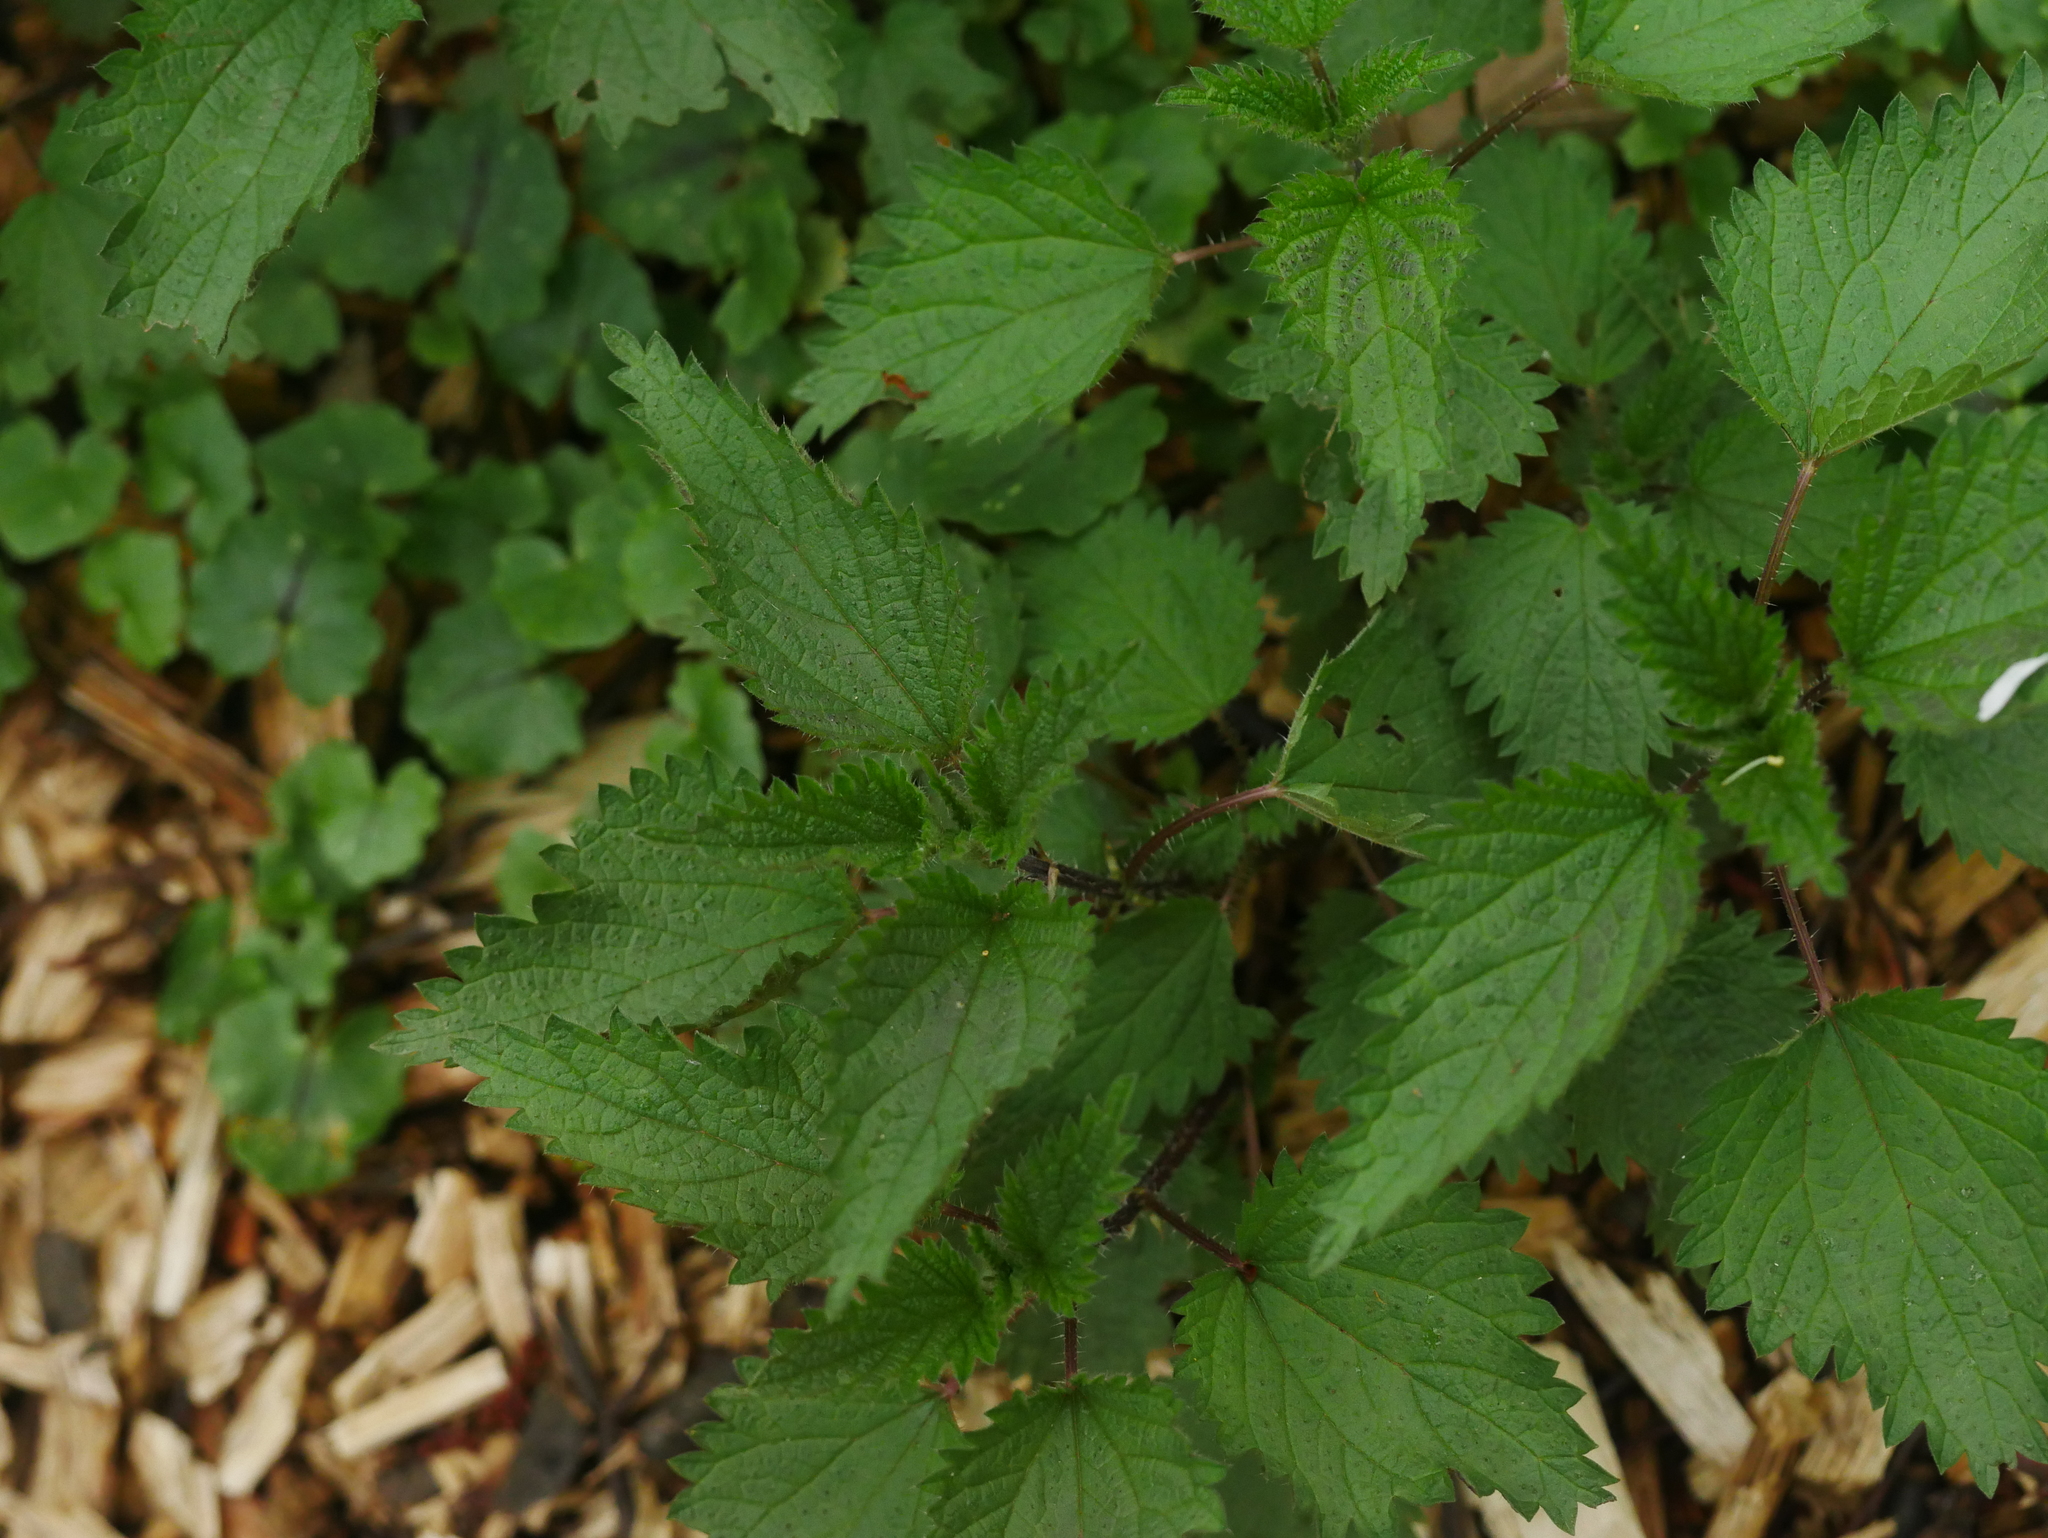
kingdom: Plantae
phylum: Tracheophyta
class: Magnoliopsida
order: Rosales
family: Urticaceae
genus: Urtica
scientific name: Urtica dioica
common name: Common nettle
